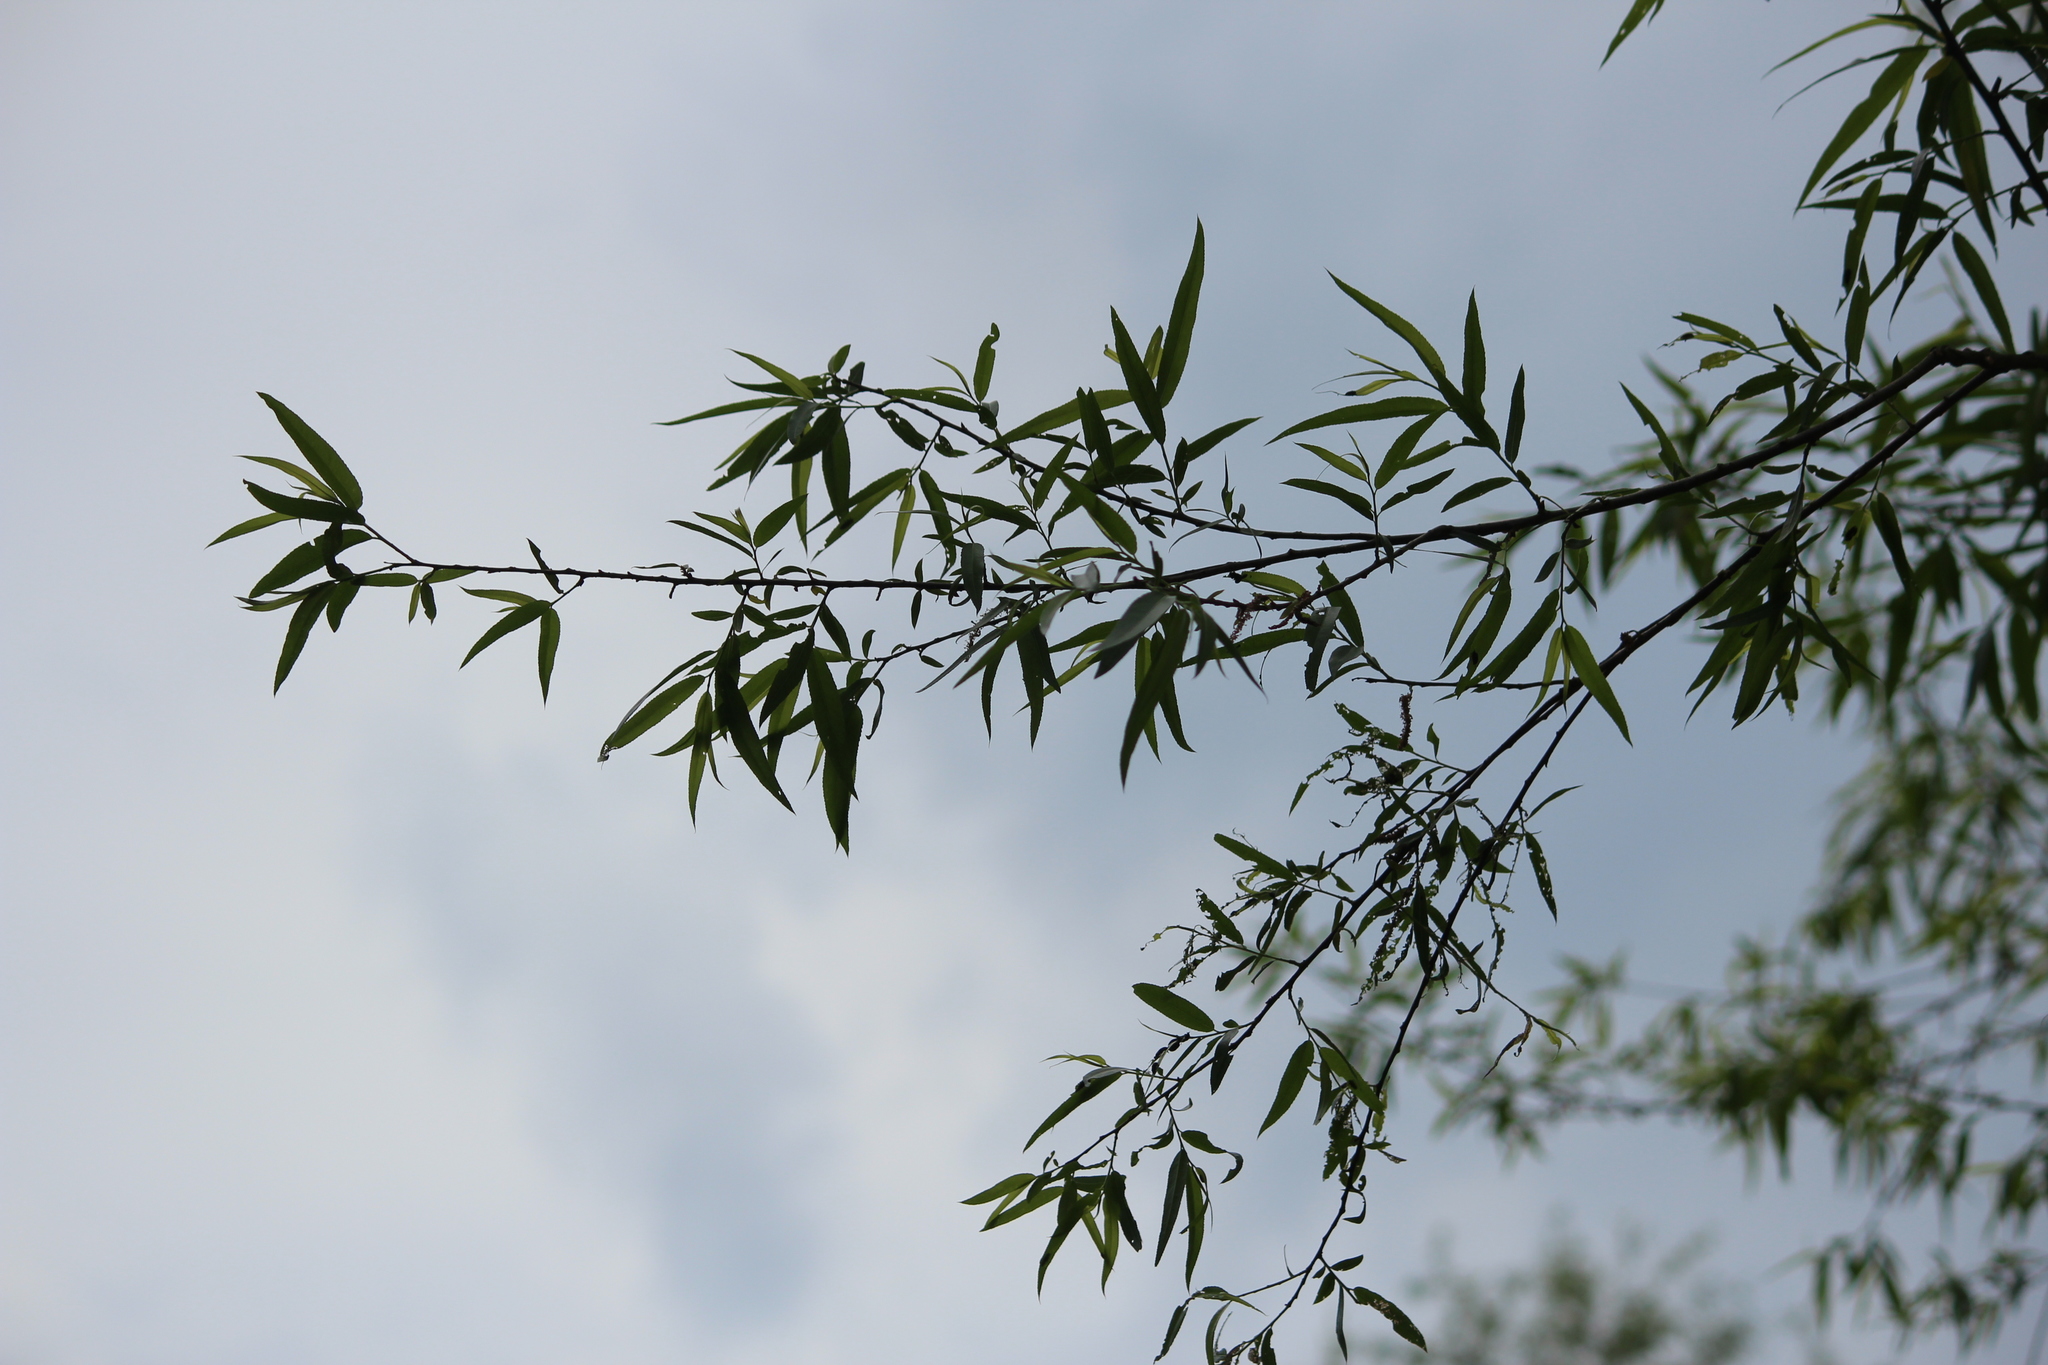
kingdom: Plantae
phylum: Tracheophyta
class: Magnoliopsida
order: Malpighiales
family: Salicaceae
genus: Salix
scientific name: Salix nigra
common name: Black willow
